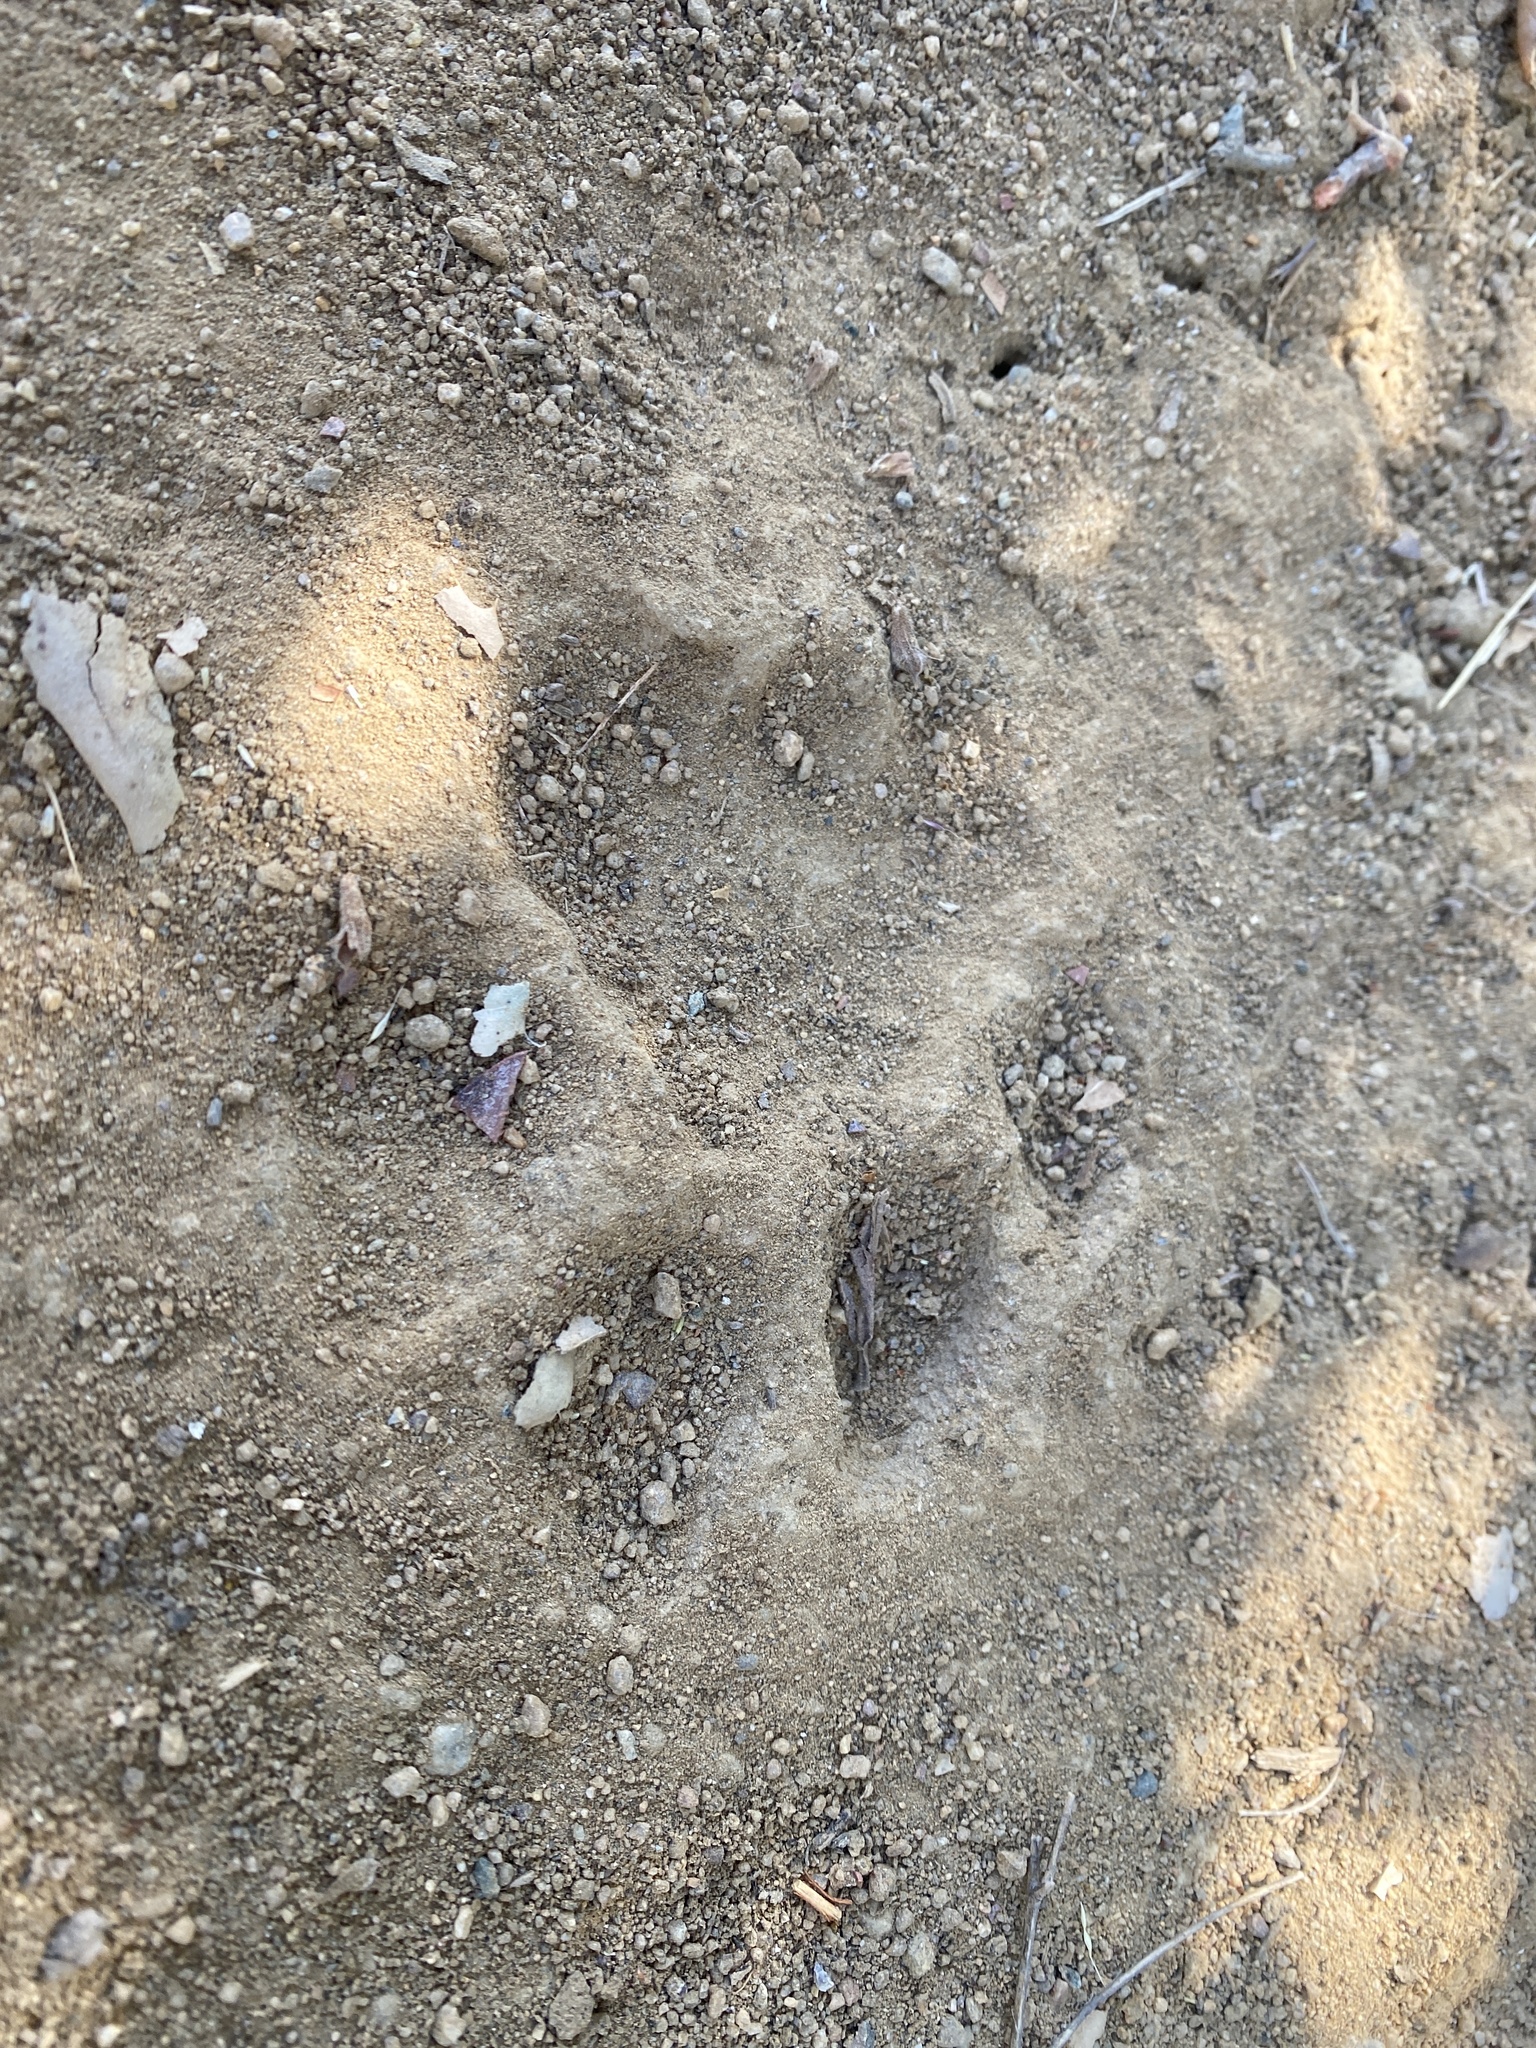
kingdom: Animalia
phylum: Chordata
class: Mammalia
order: Carnivora
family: Felidae
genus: Puma
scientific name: Puma concolor
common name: Puma
